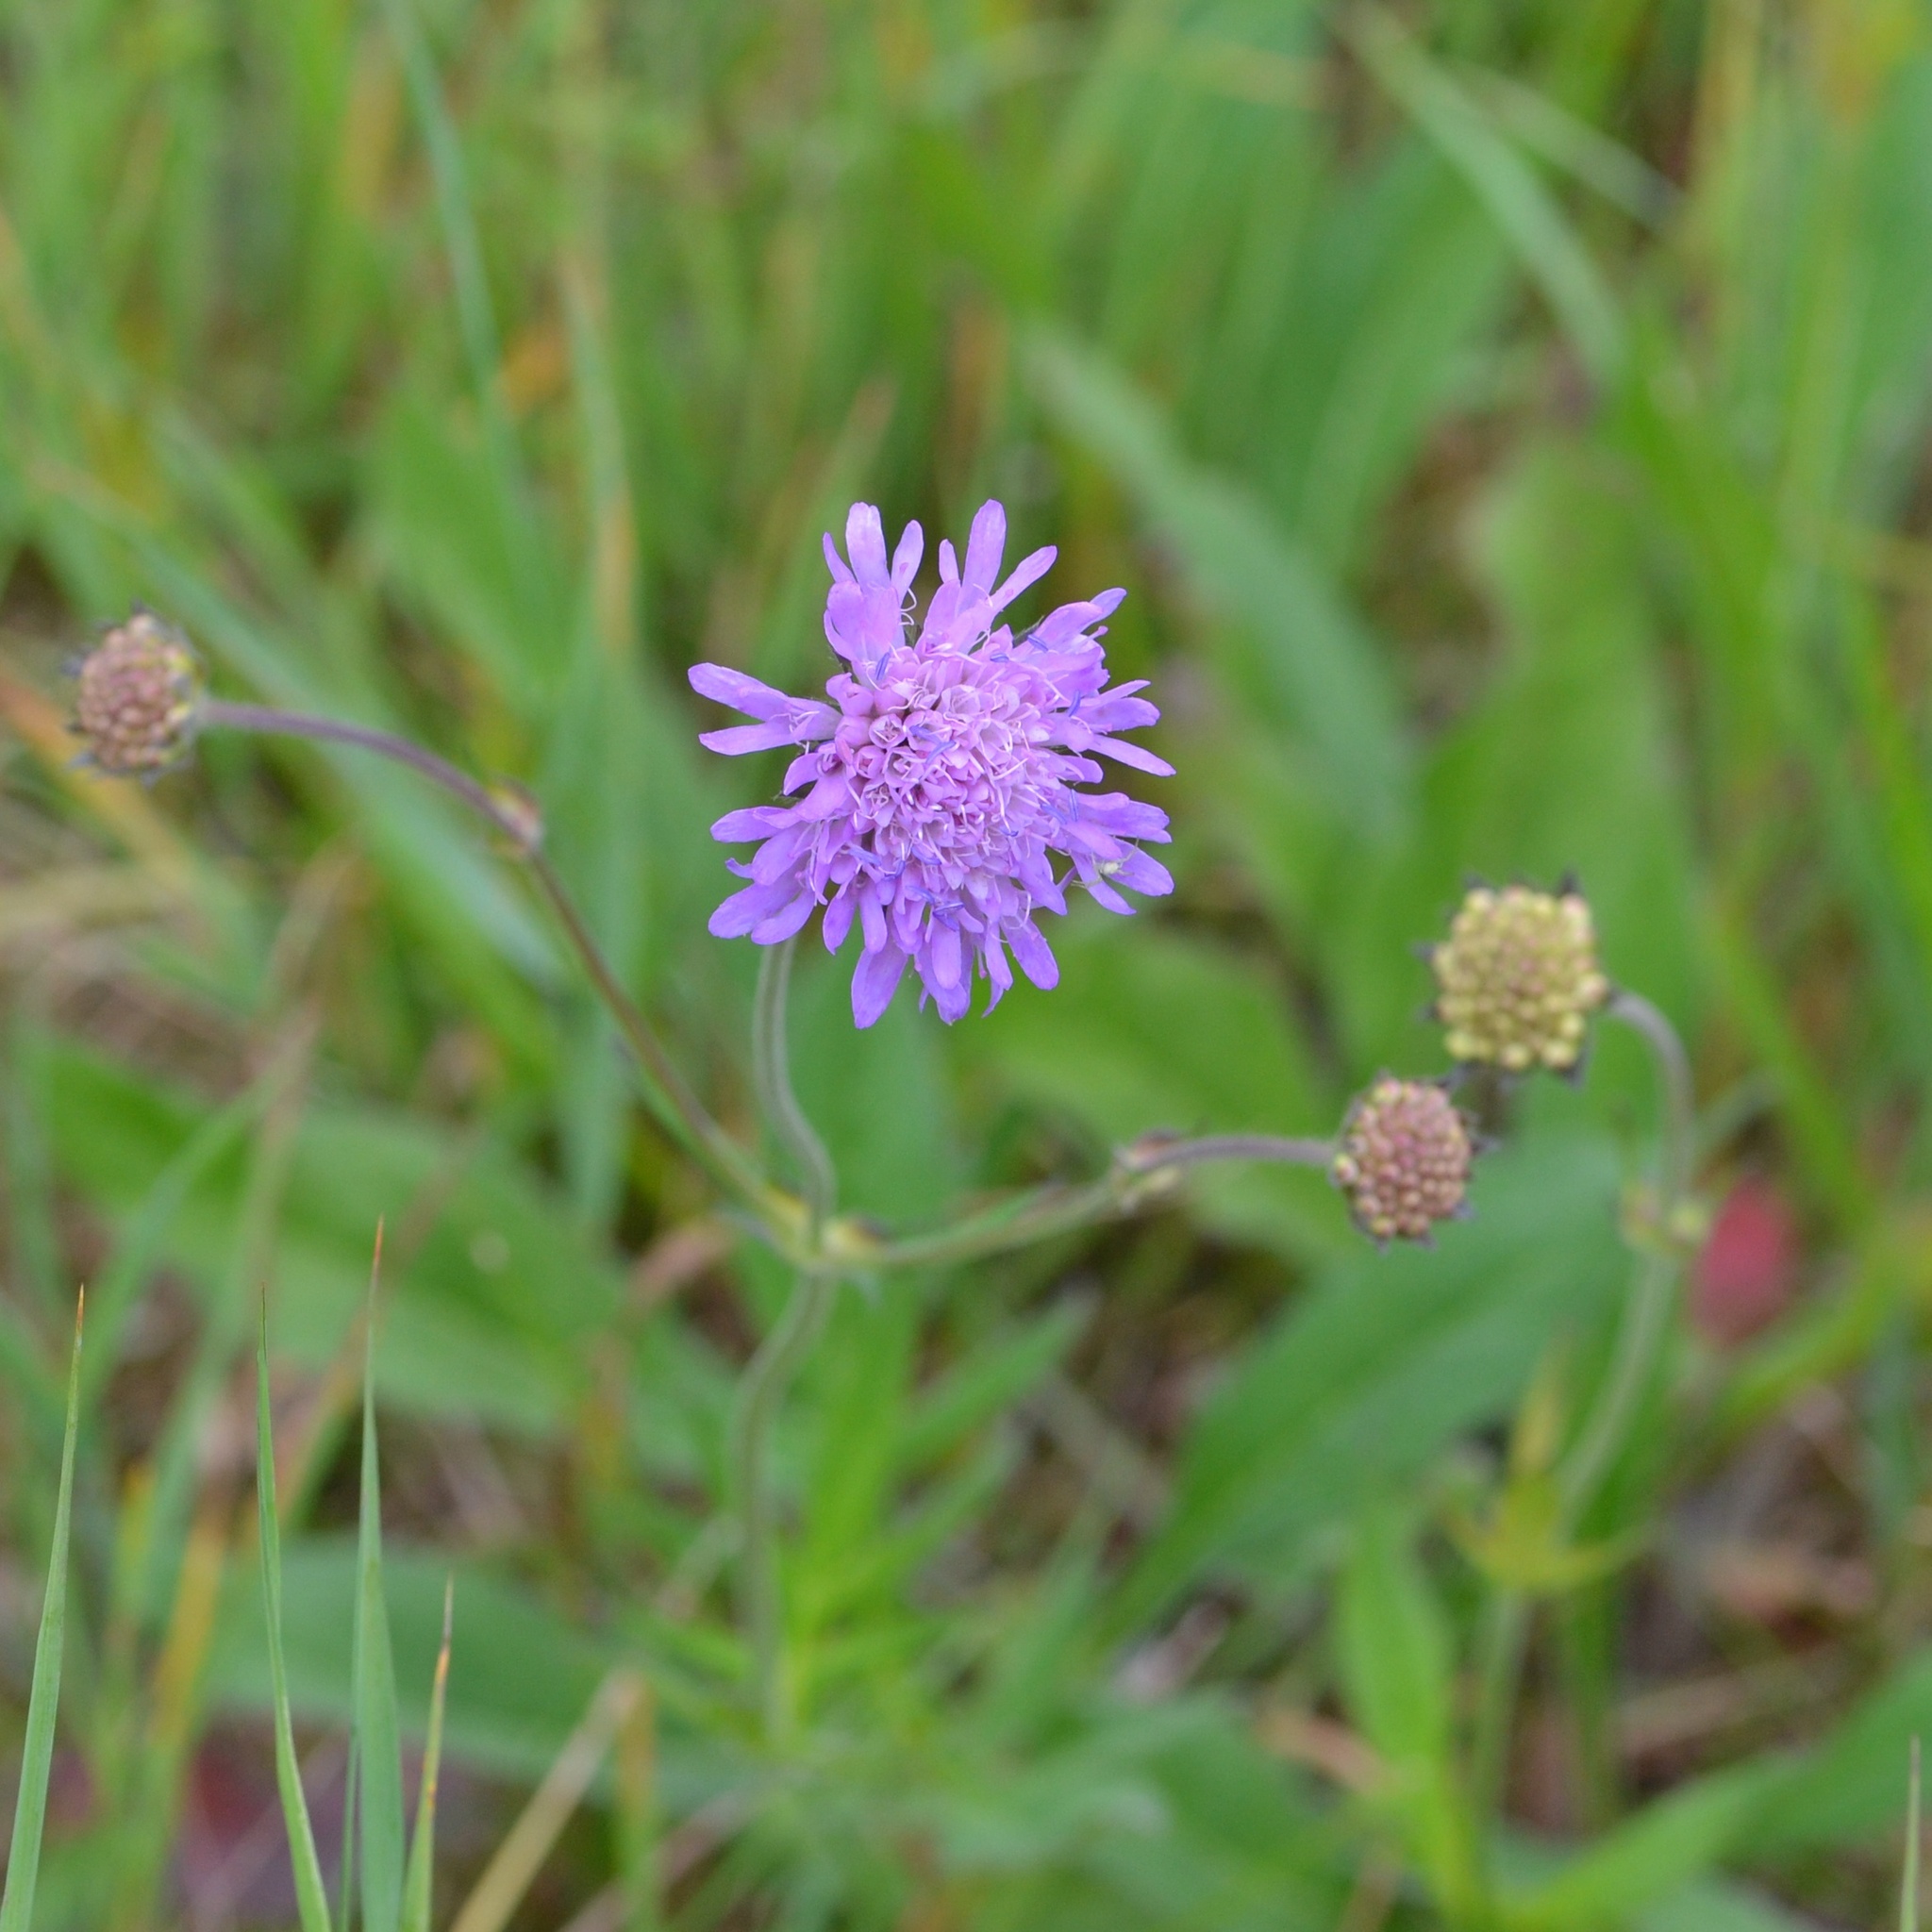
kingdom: Plantae
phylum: Tracheophyta
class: Magnoliopsida
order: Dipsacales
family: Caprifoliaceae
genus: Knautia
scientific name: Knautia arvensis
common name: Field scabiosa
